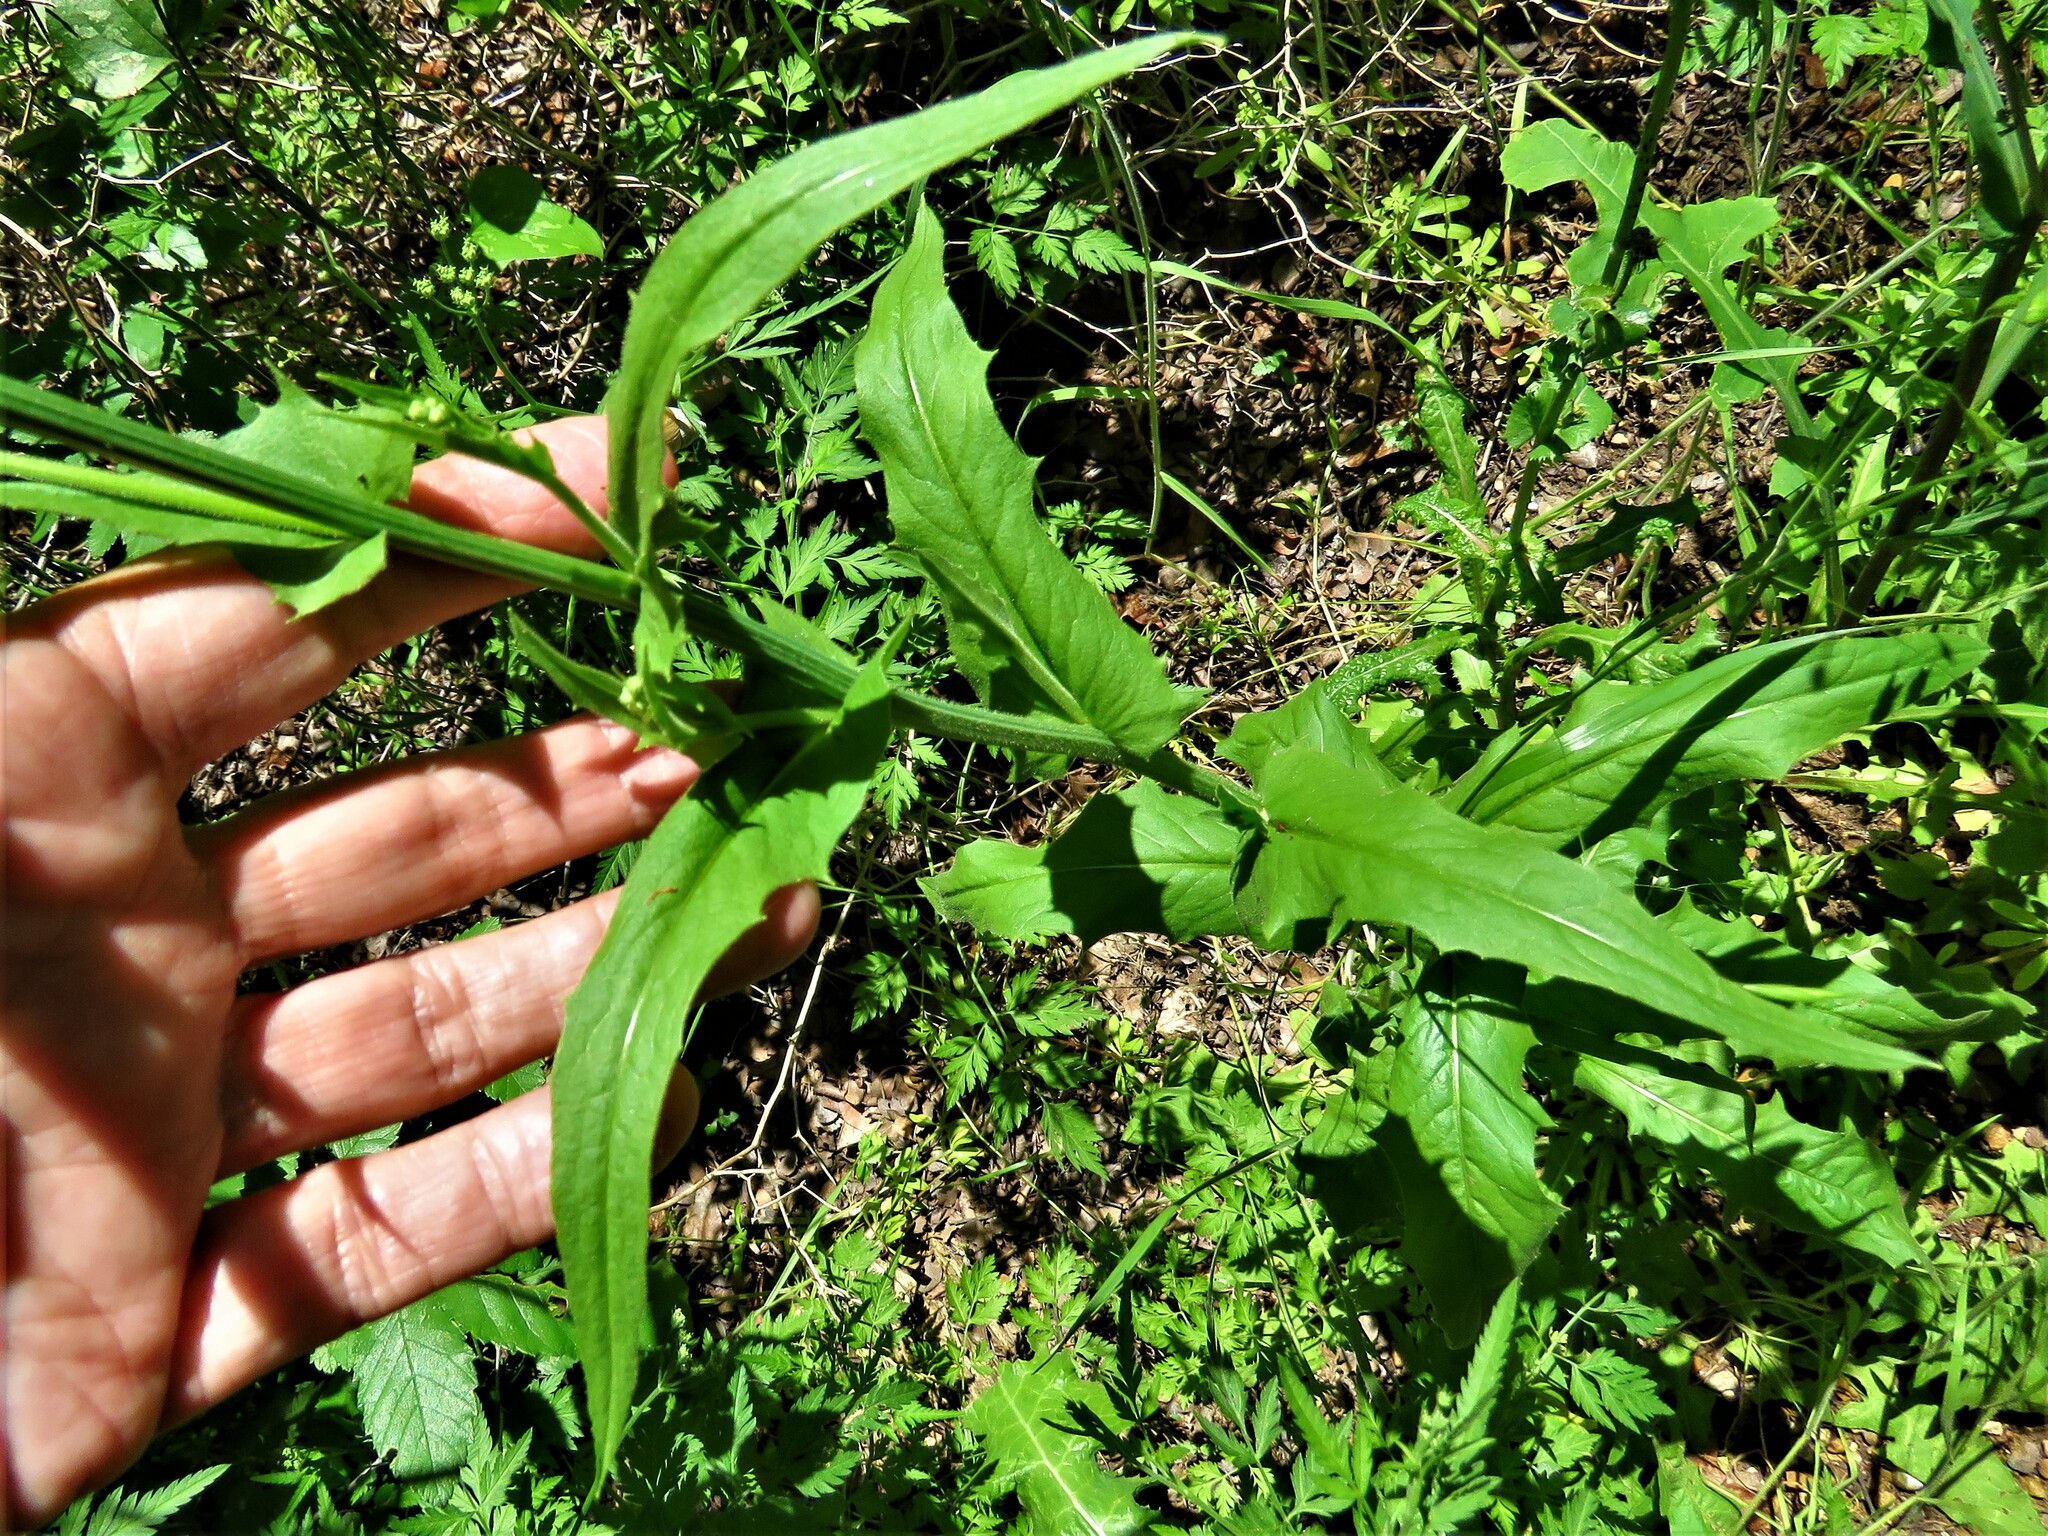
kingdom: Plantae
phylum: Tracheophyta
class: Magnoliopsida
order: Asterales
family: Asteraceae
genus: Crepis
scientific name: Crepis pulchra
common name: Hawk's-beard
